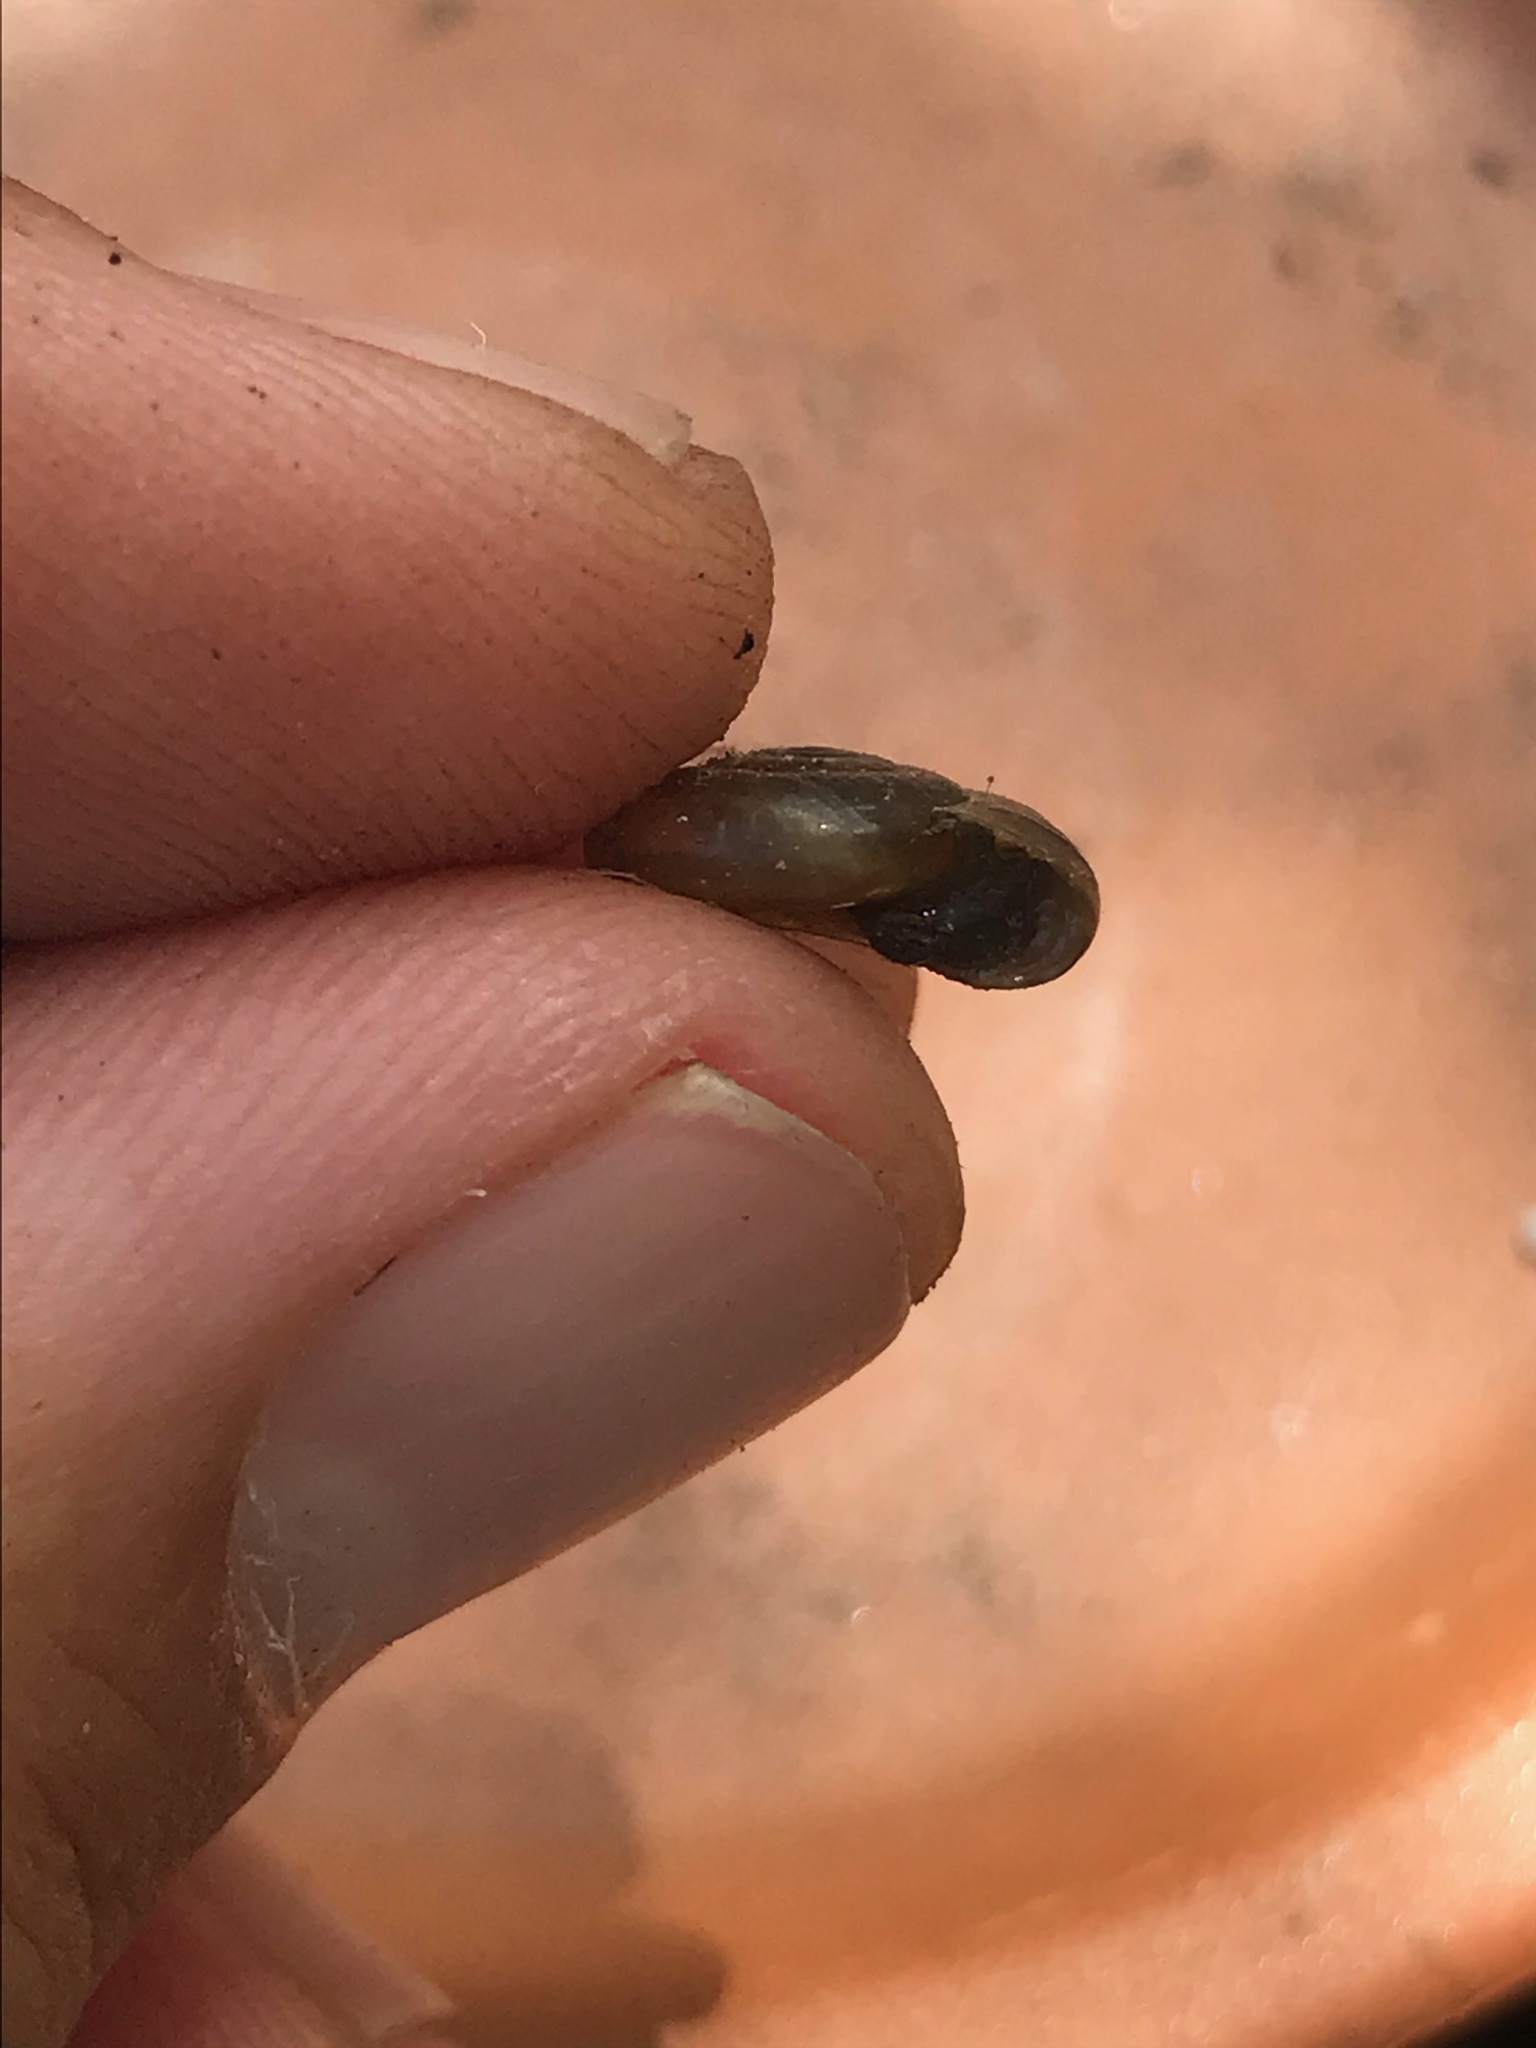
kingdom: Animalia
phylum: Mollusca
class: Gastropoda
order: Stylommatophora
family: Oxychilidae
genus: Oxychilus
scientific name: Oxychilus
